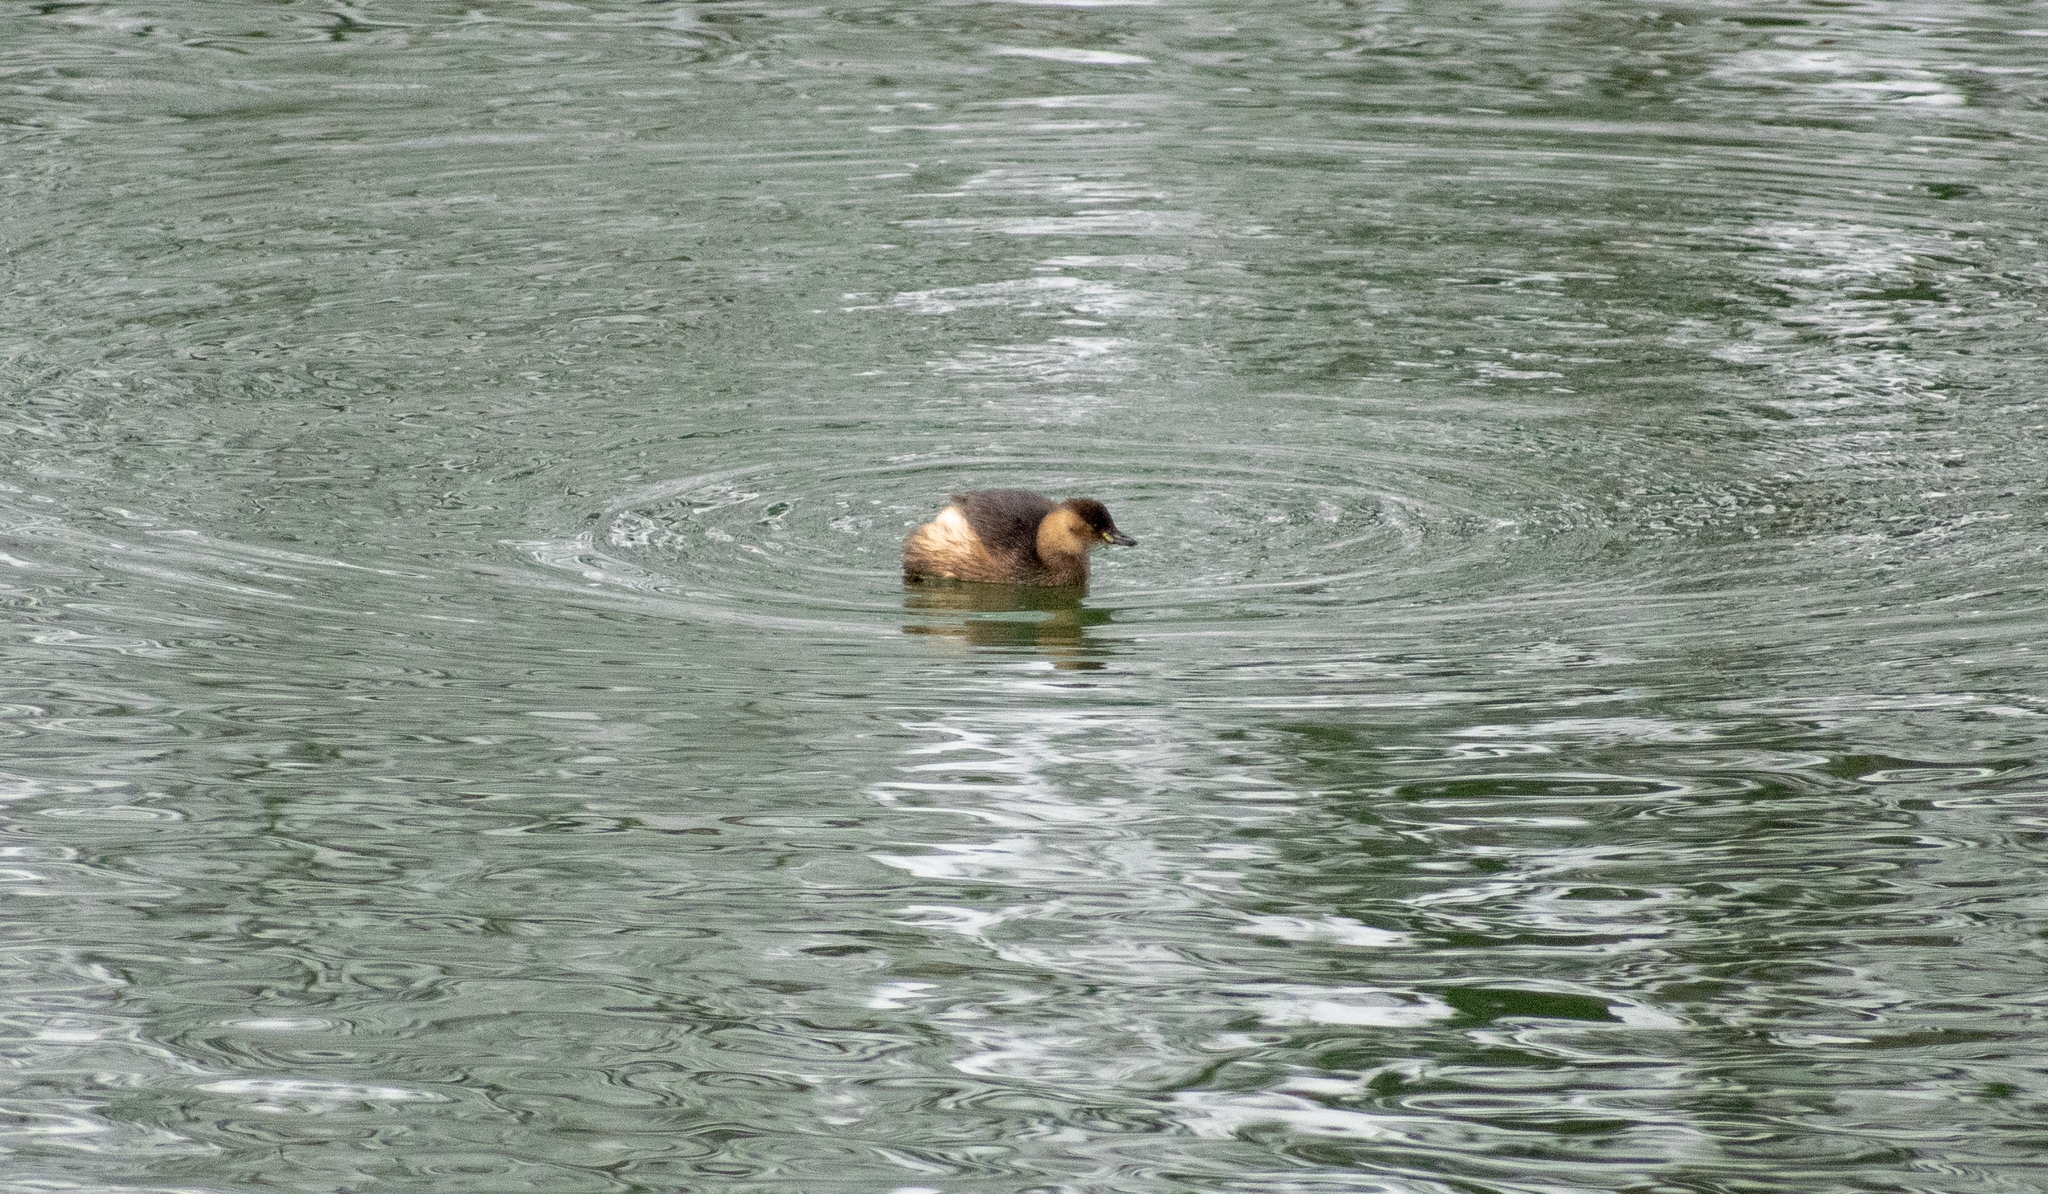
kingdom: Animalia
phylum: Chordata
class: Aves
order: Podicipediformes
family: Podicipedidae
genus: Tachybaptus
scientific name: Tachybaptus ruficollis
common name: Little grebe
